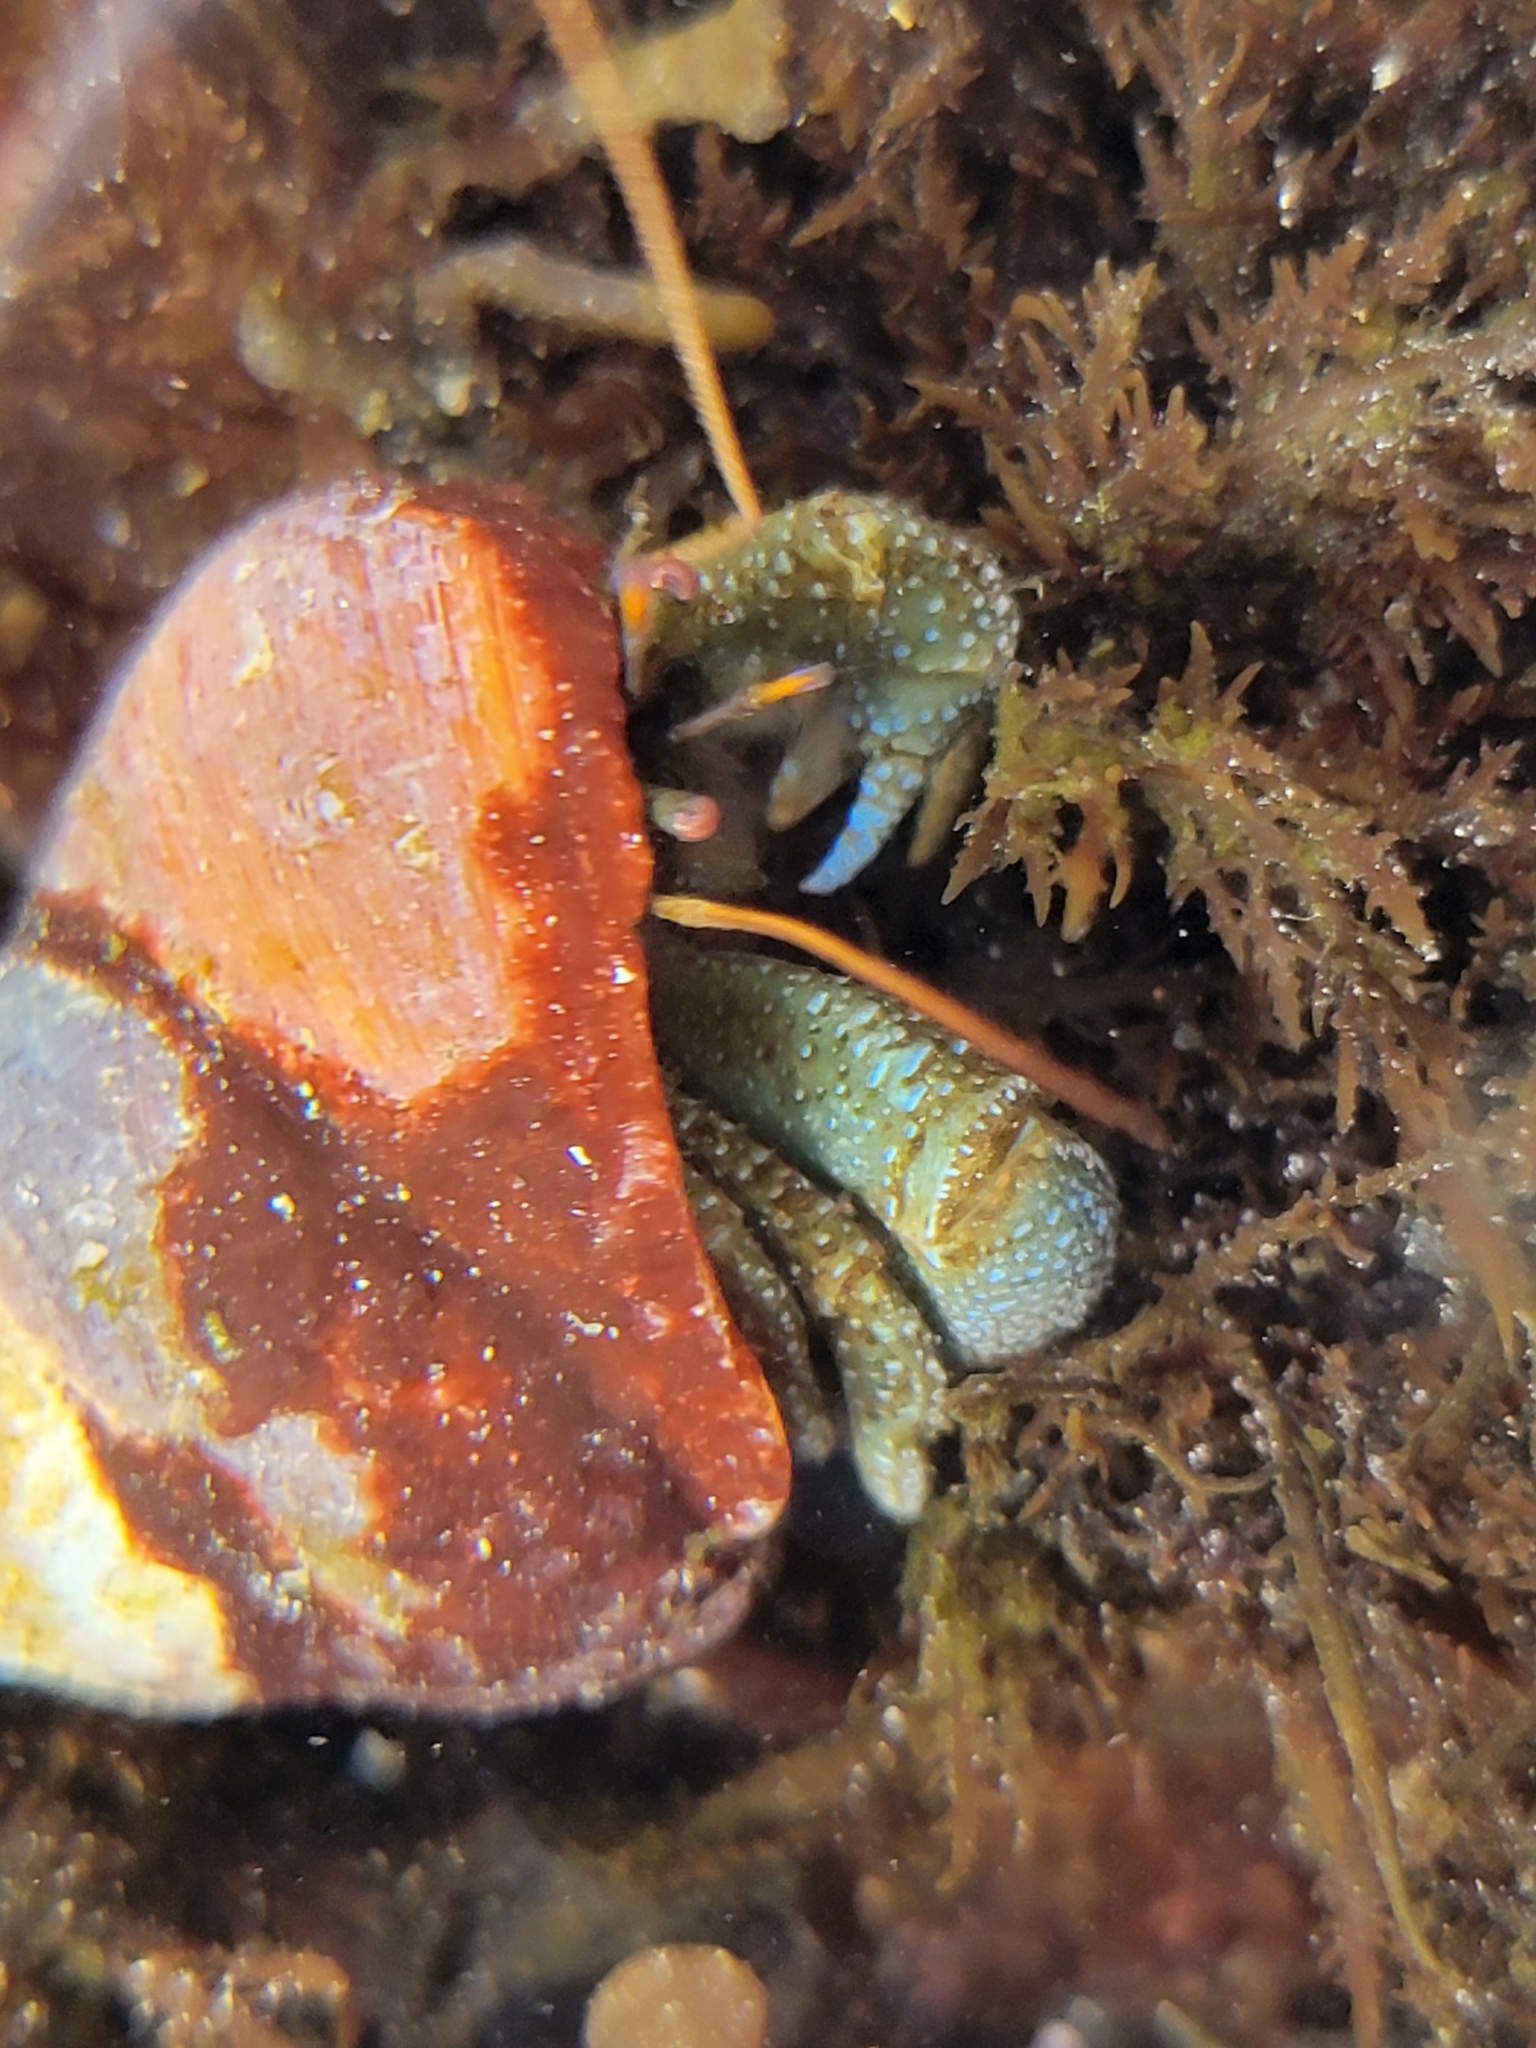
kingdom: Animalia
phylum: Arthropoda
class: Malacostraca
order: Decapoda
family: Paguridae
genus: Pagurus
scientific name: Pagurus granosimanus
